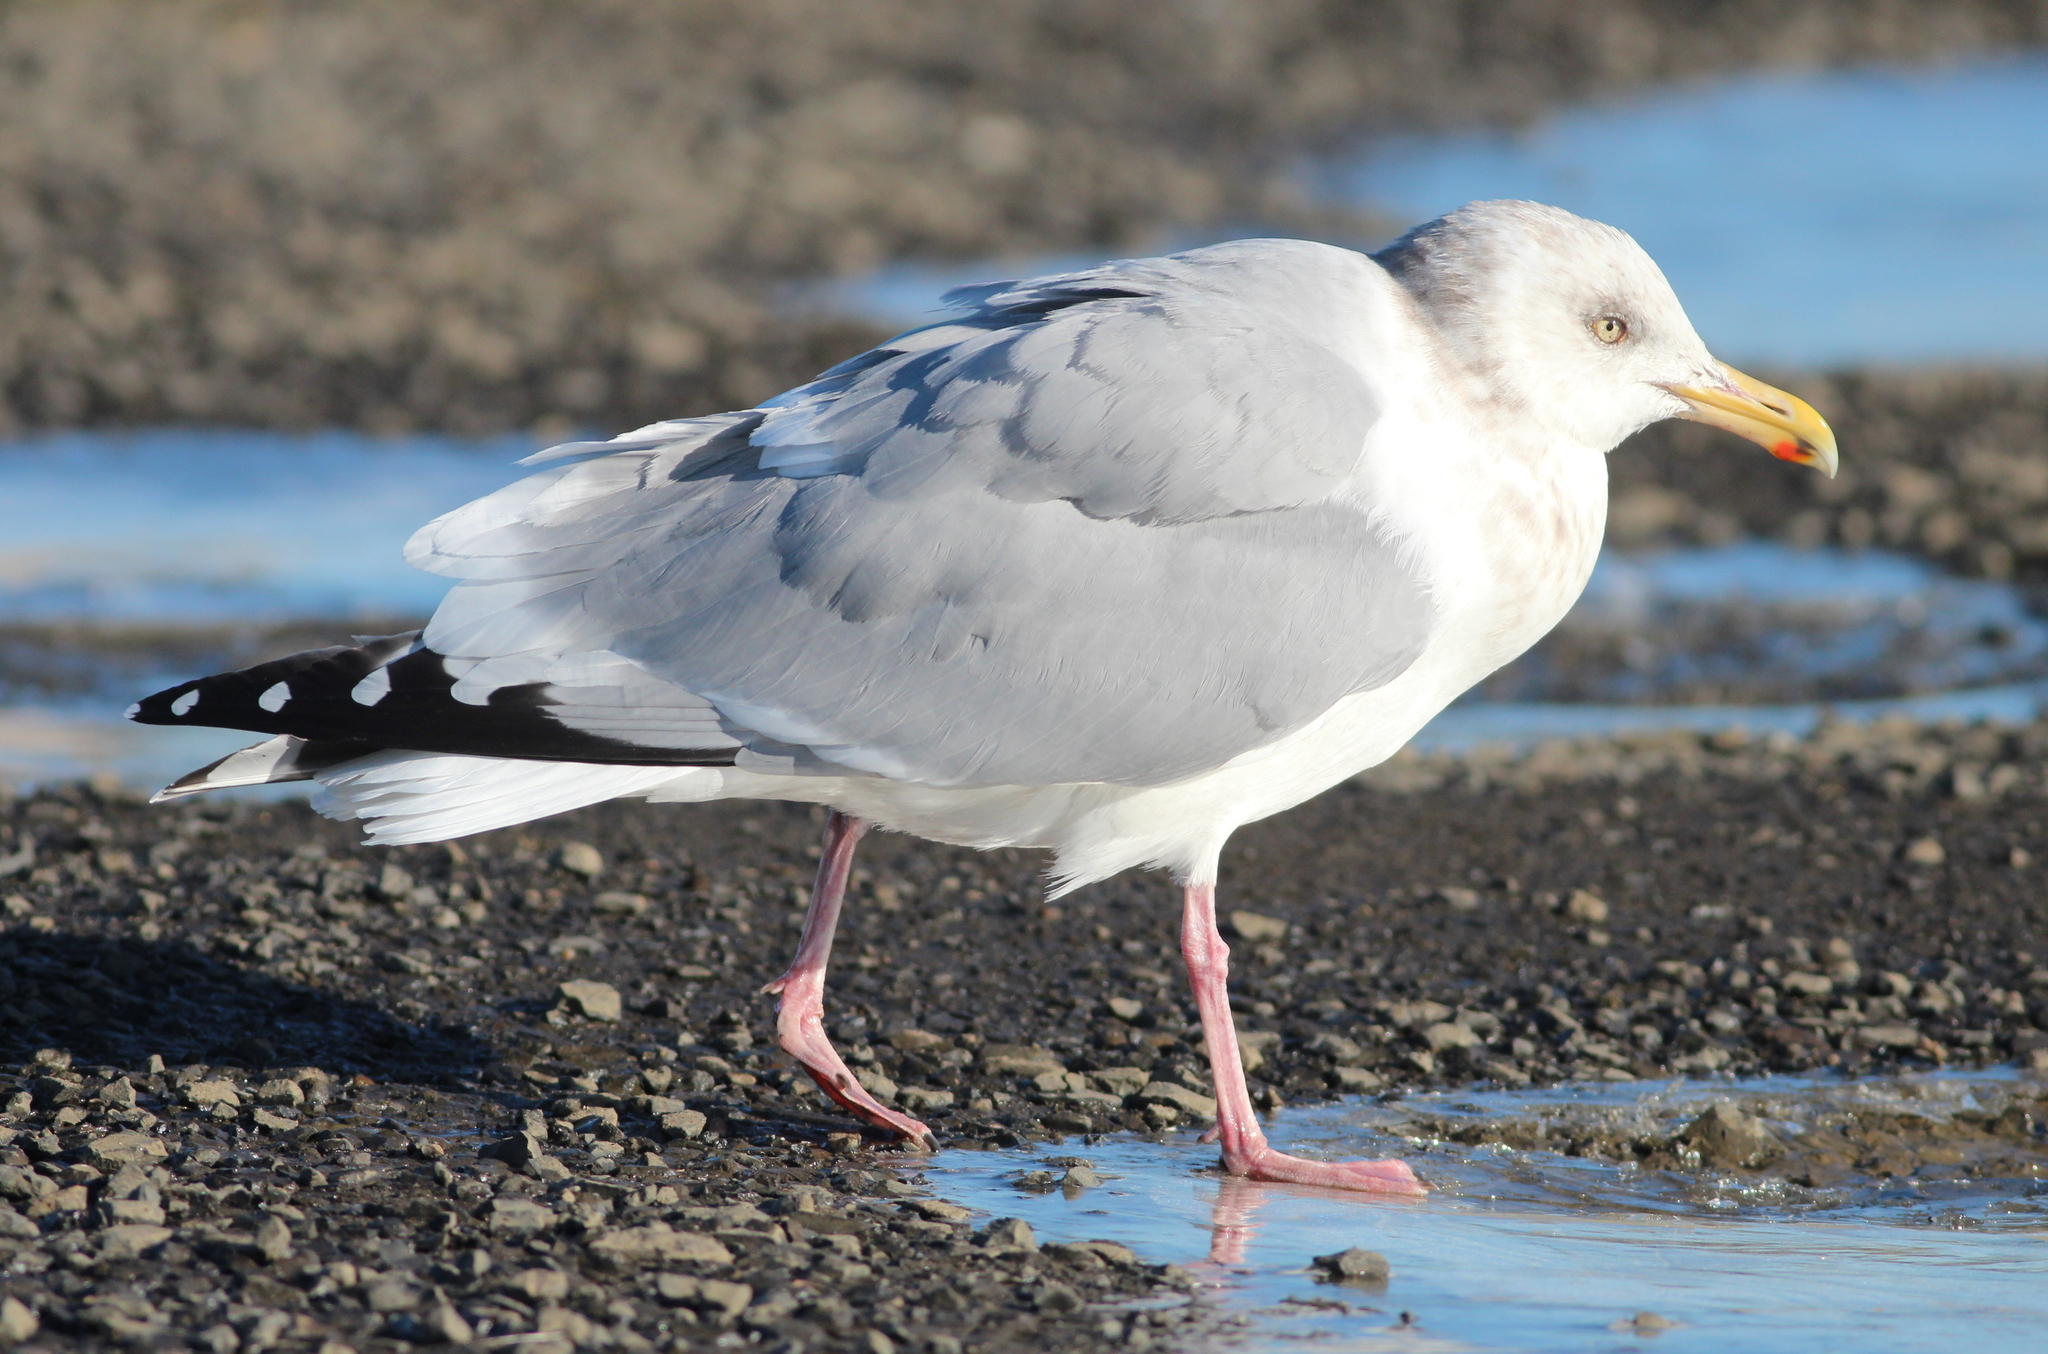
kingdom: Animalia
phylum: Chordata
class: Aves
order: Charadriiformes
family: Laridae
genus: Larus
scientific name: Larus argentatus
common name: Herring gull
